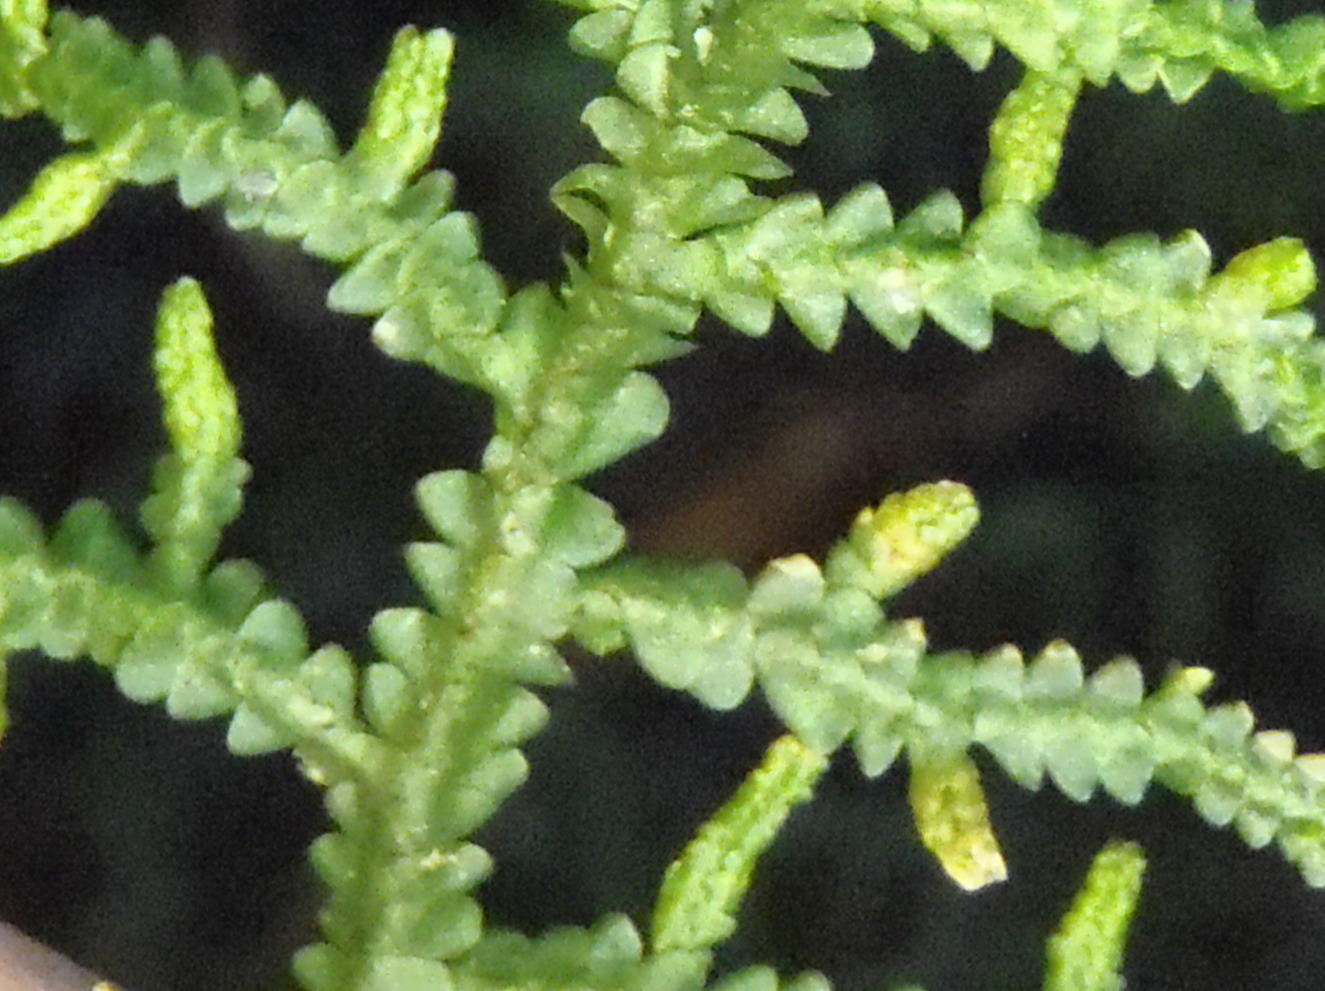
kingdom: Plantae
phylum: Tracheophyta
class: Lycopodiopsida
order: Selaginellales
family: Selaginellaceae
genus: Selaginella
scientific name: Selaginella kraussiana
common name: Krauss' spikemoss
